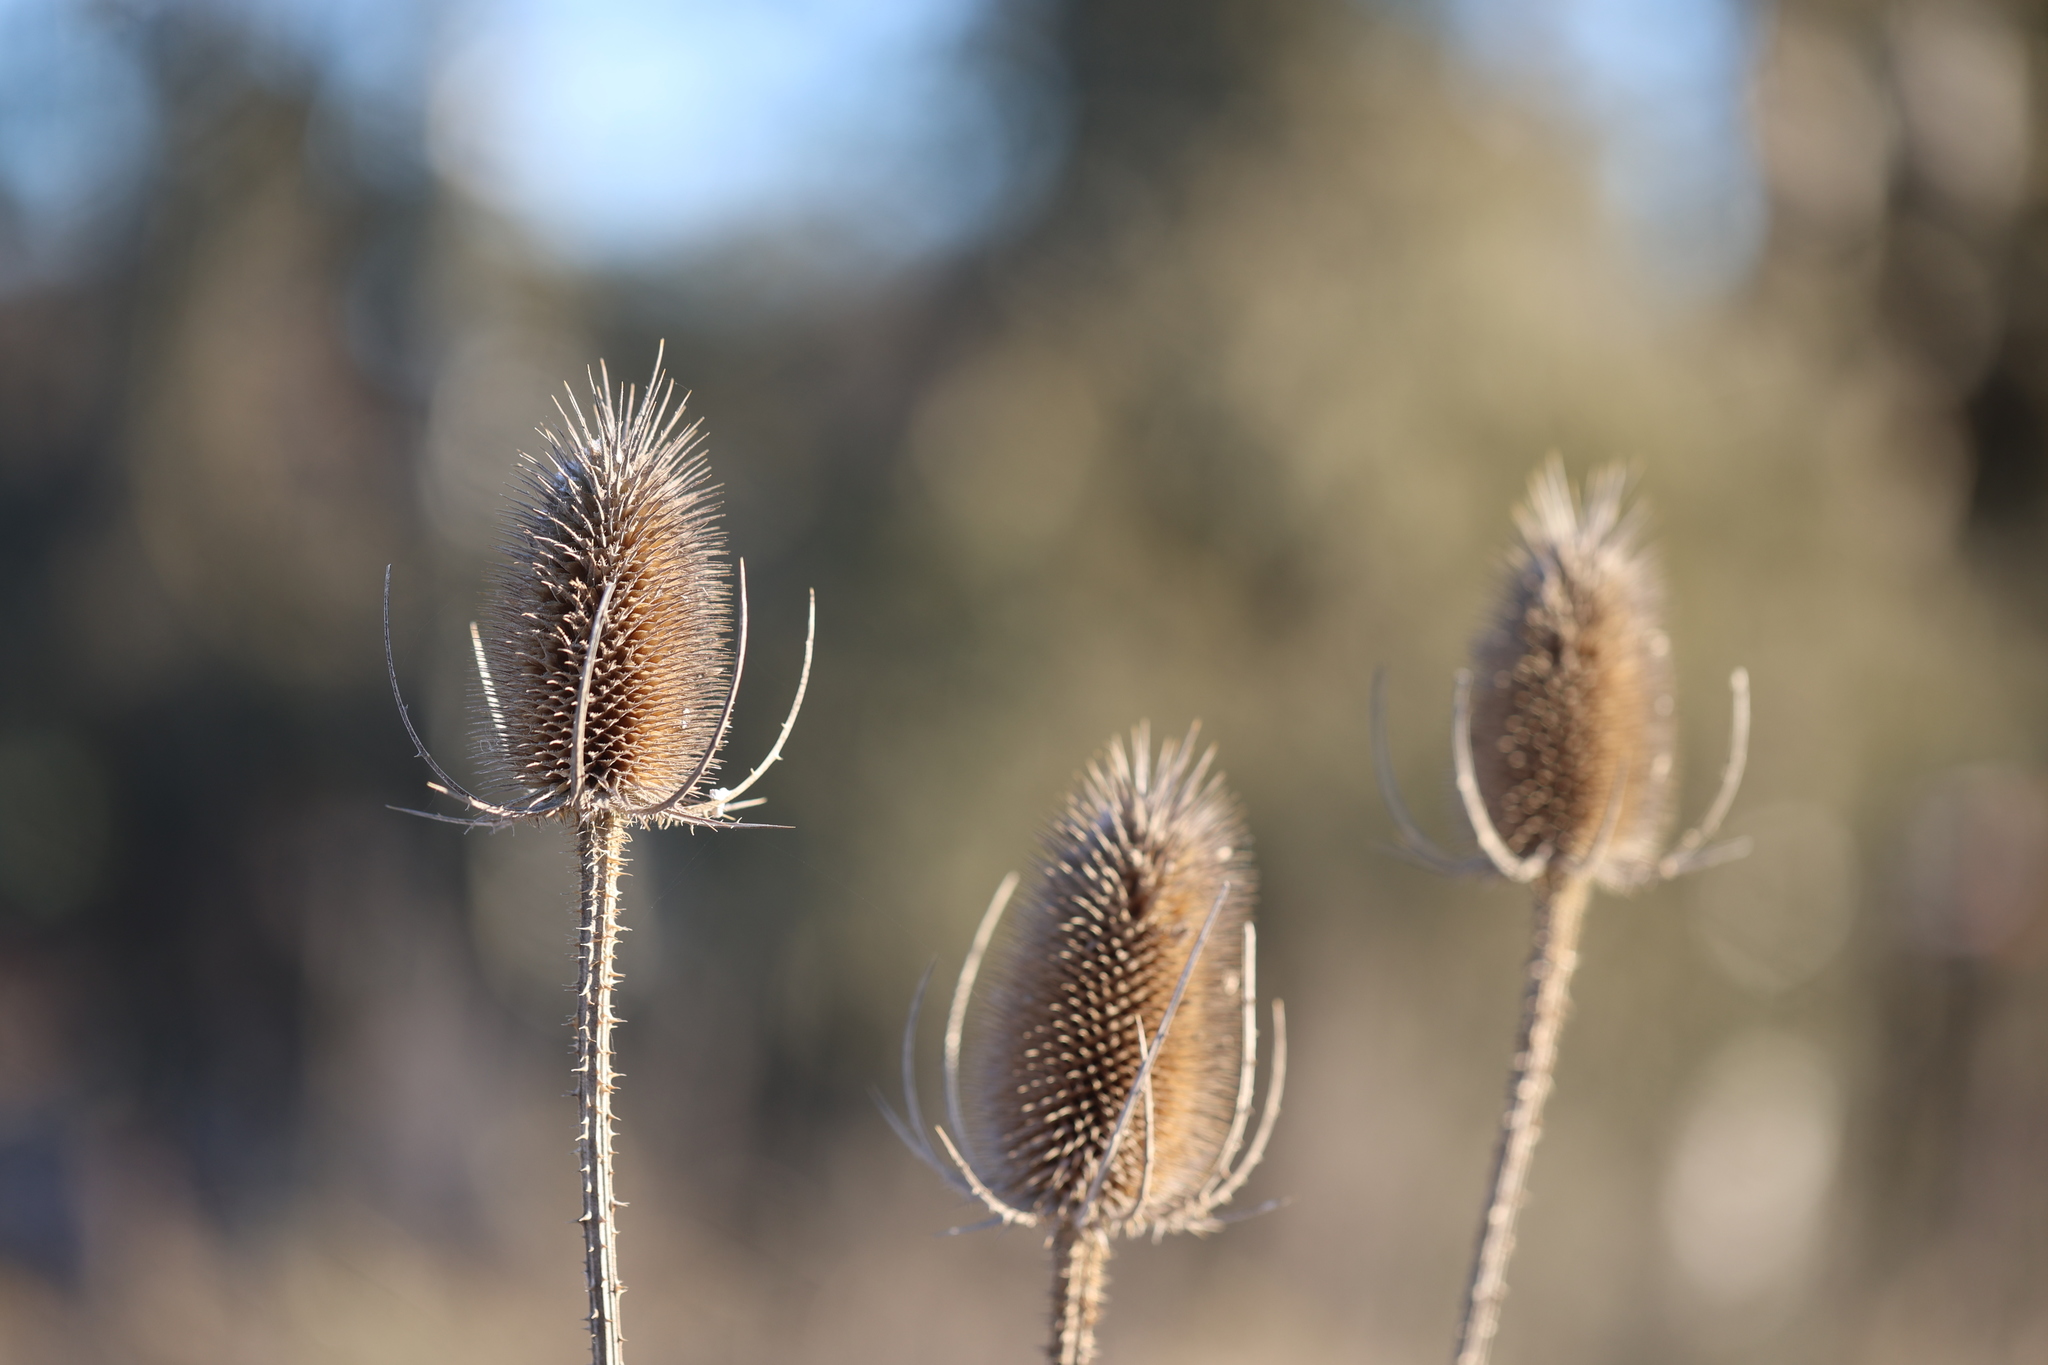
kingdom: Plantae
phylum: Tracheophyta
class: Magnoliopsida
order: Dipsacales
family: Caprifoliaceae
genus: Dipsacus
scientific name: Dipsacus fullonum
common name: Teasel
